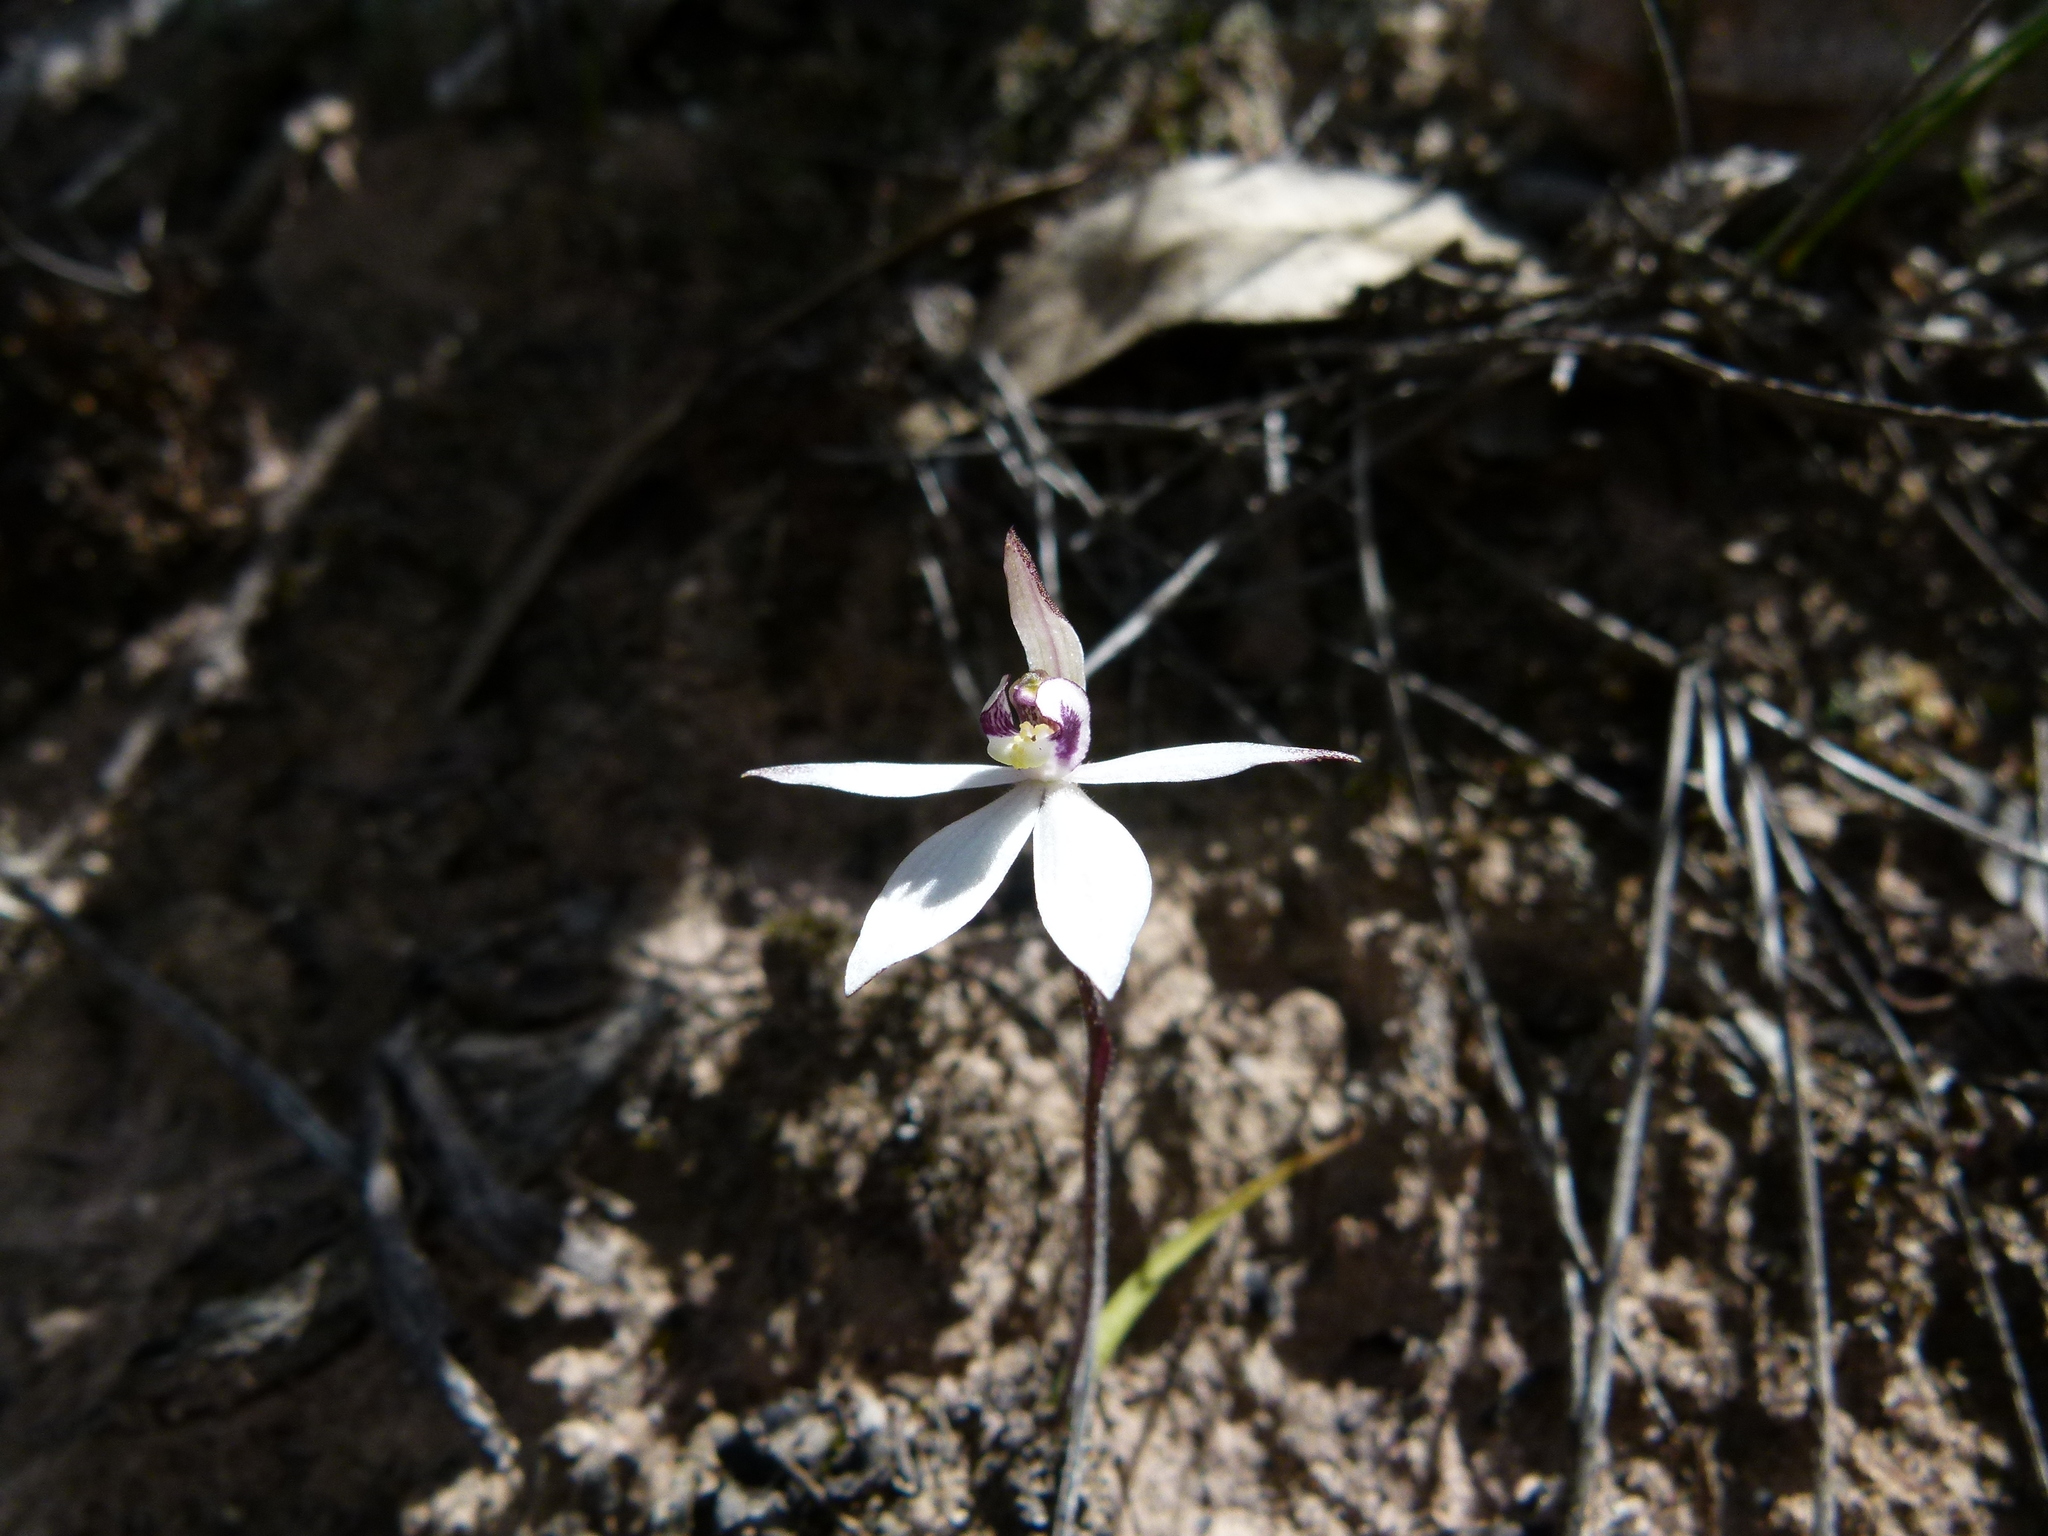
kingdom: Plantae
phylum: Tracheophyta
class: Liliopsida
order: Asparagales
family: Orchidaceae
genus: Caladenia
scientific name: Caladenia saccharata
